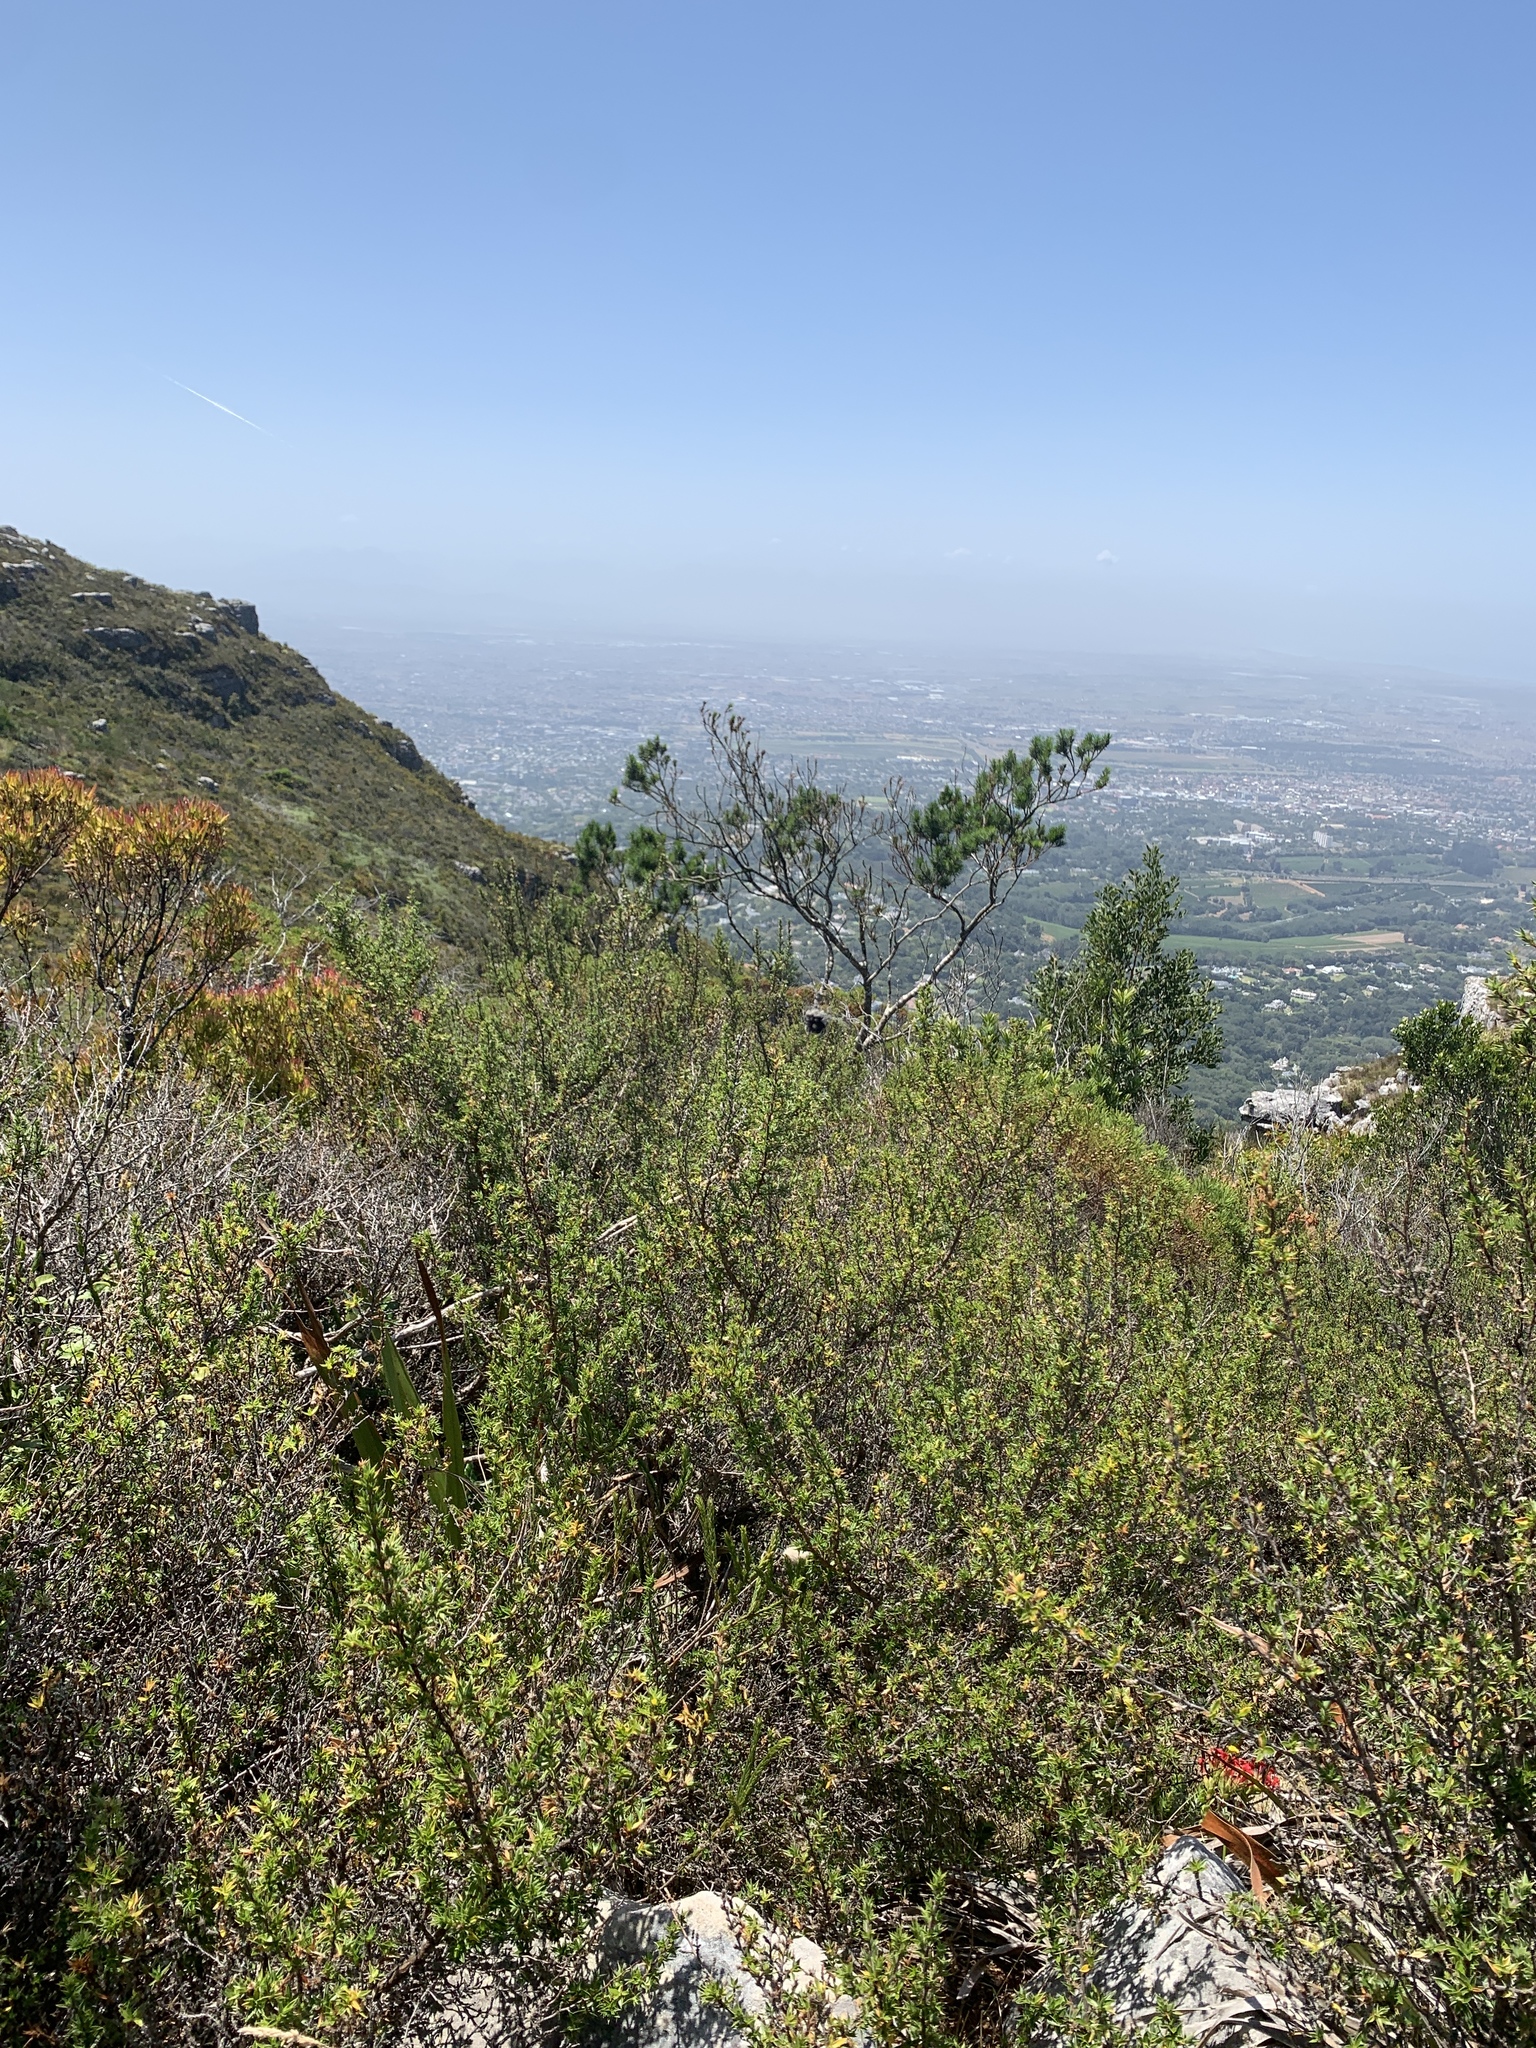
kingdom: Animalia
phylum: Arthropoda
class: Arachnida
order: Araneae
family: Araneidae
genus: Caerostris
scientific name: Caerostris sexcuspidata
